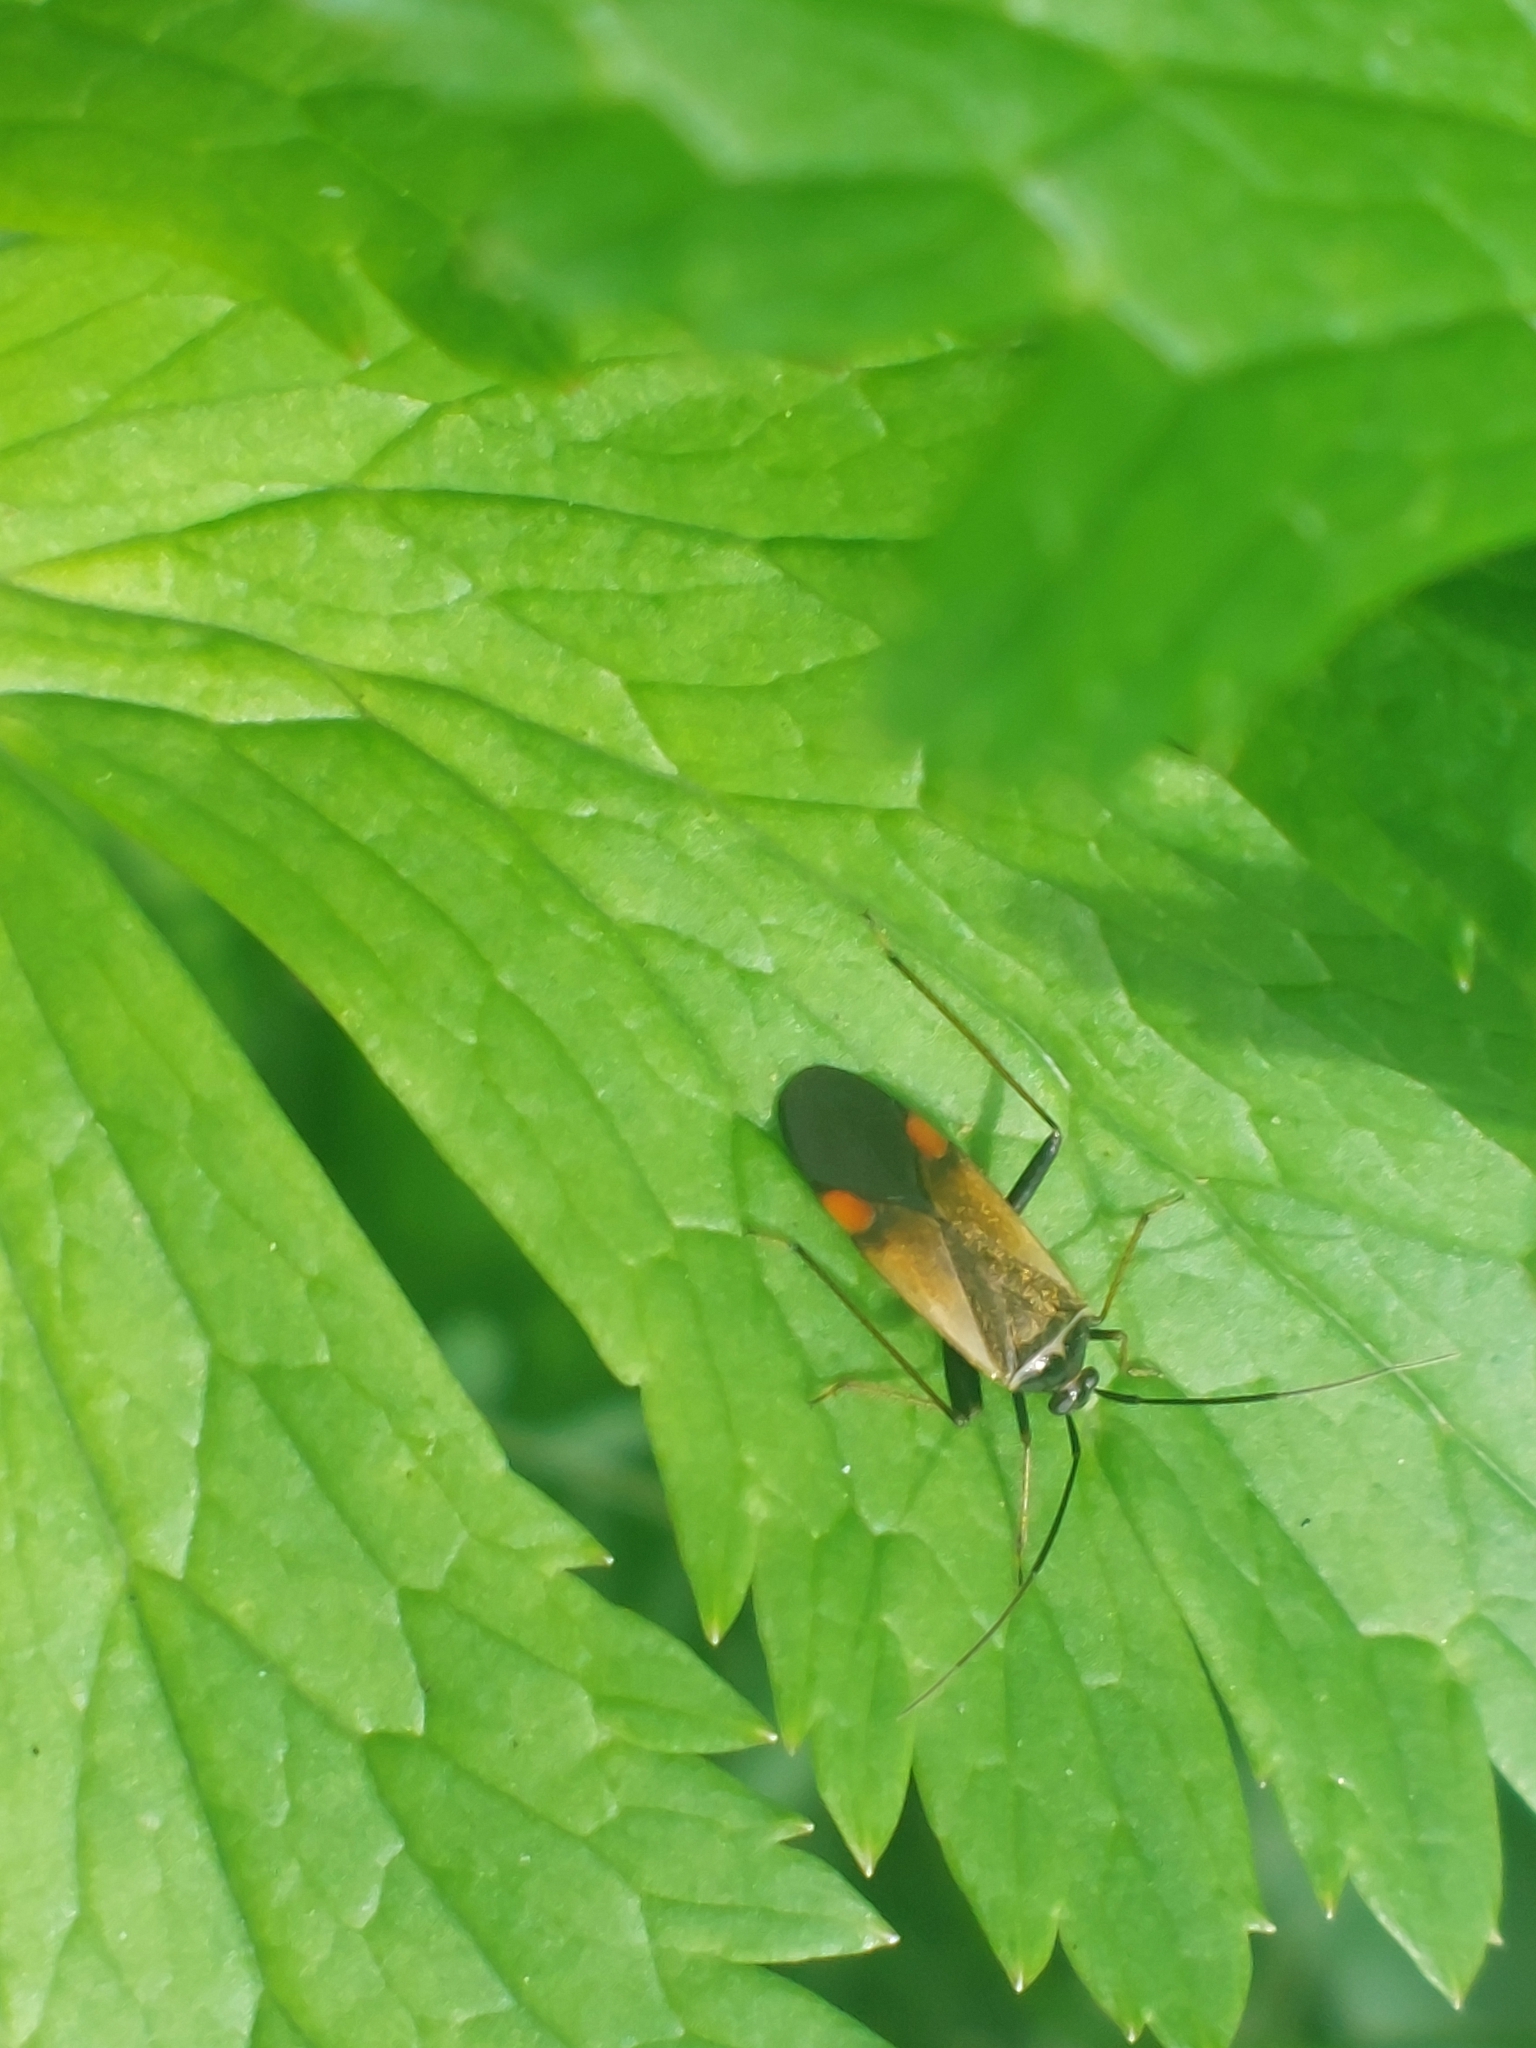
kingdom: Animalia
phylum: Arthropoda
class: Insecta
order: Hemiptera
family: Miridae
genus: Adelphocoris
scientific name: Adelphocoris seticornis
